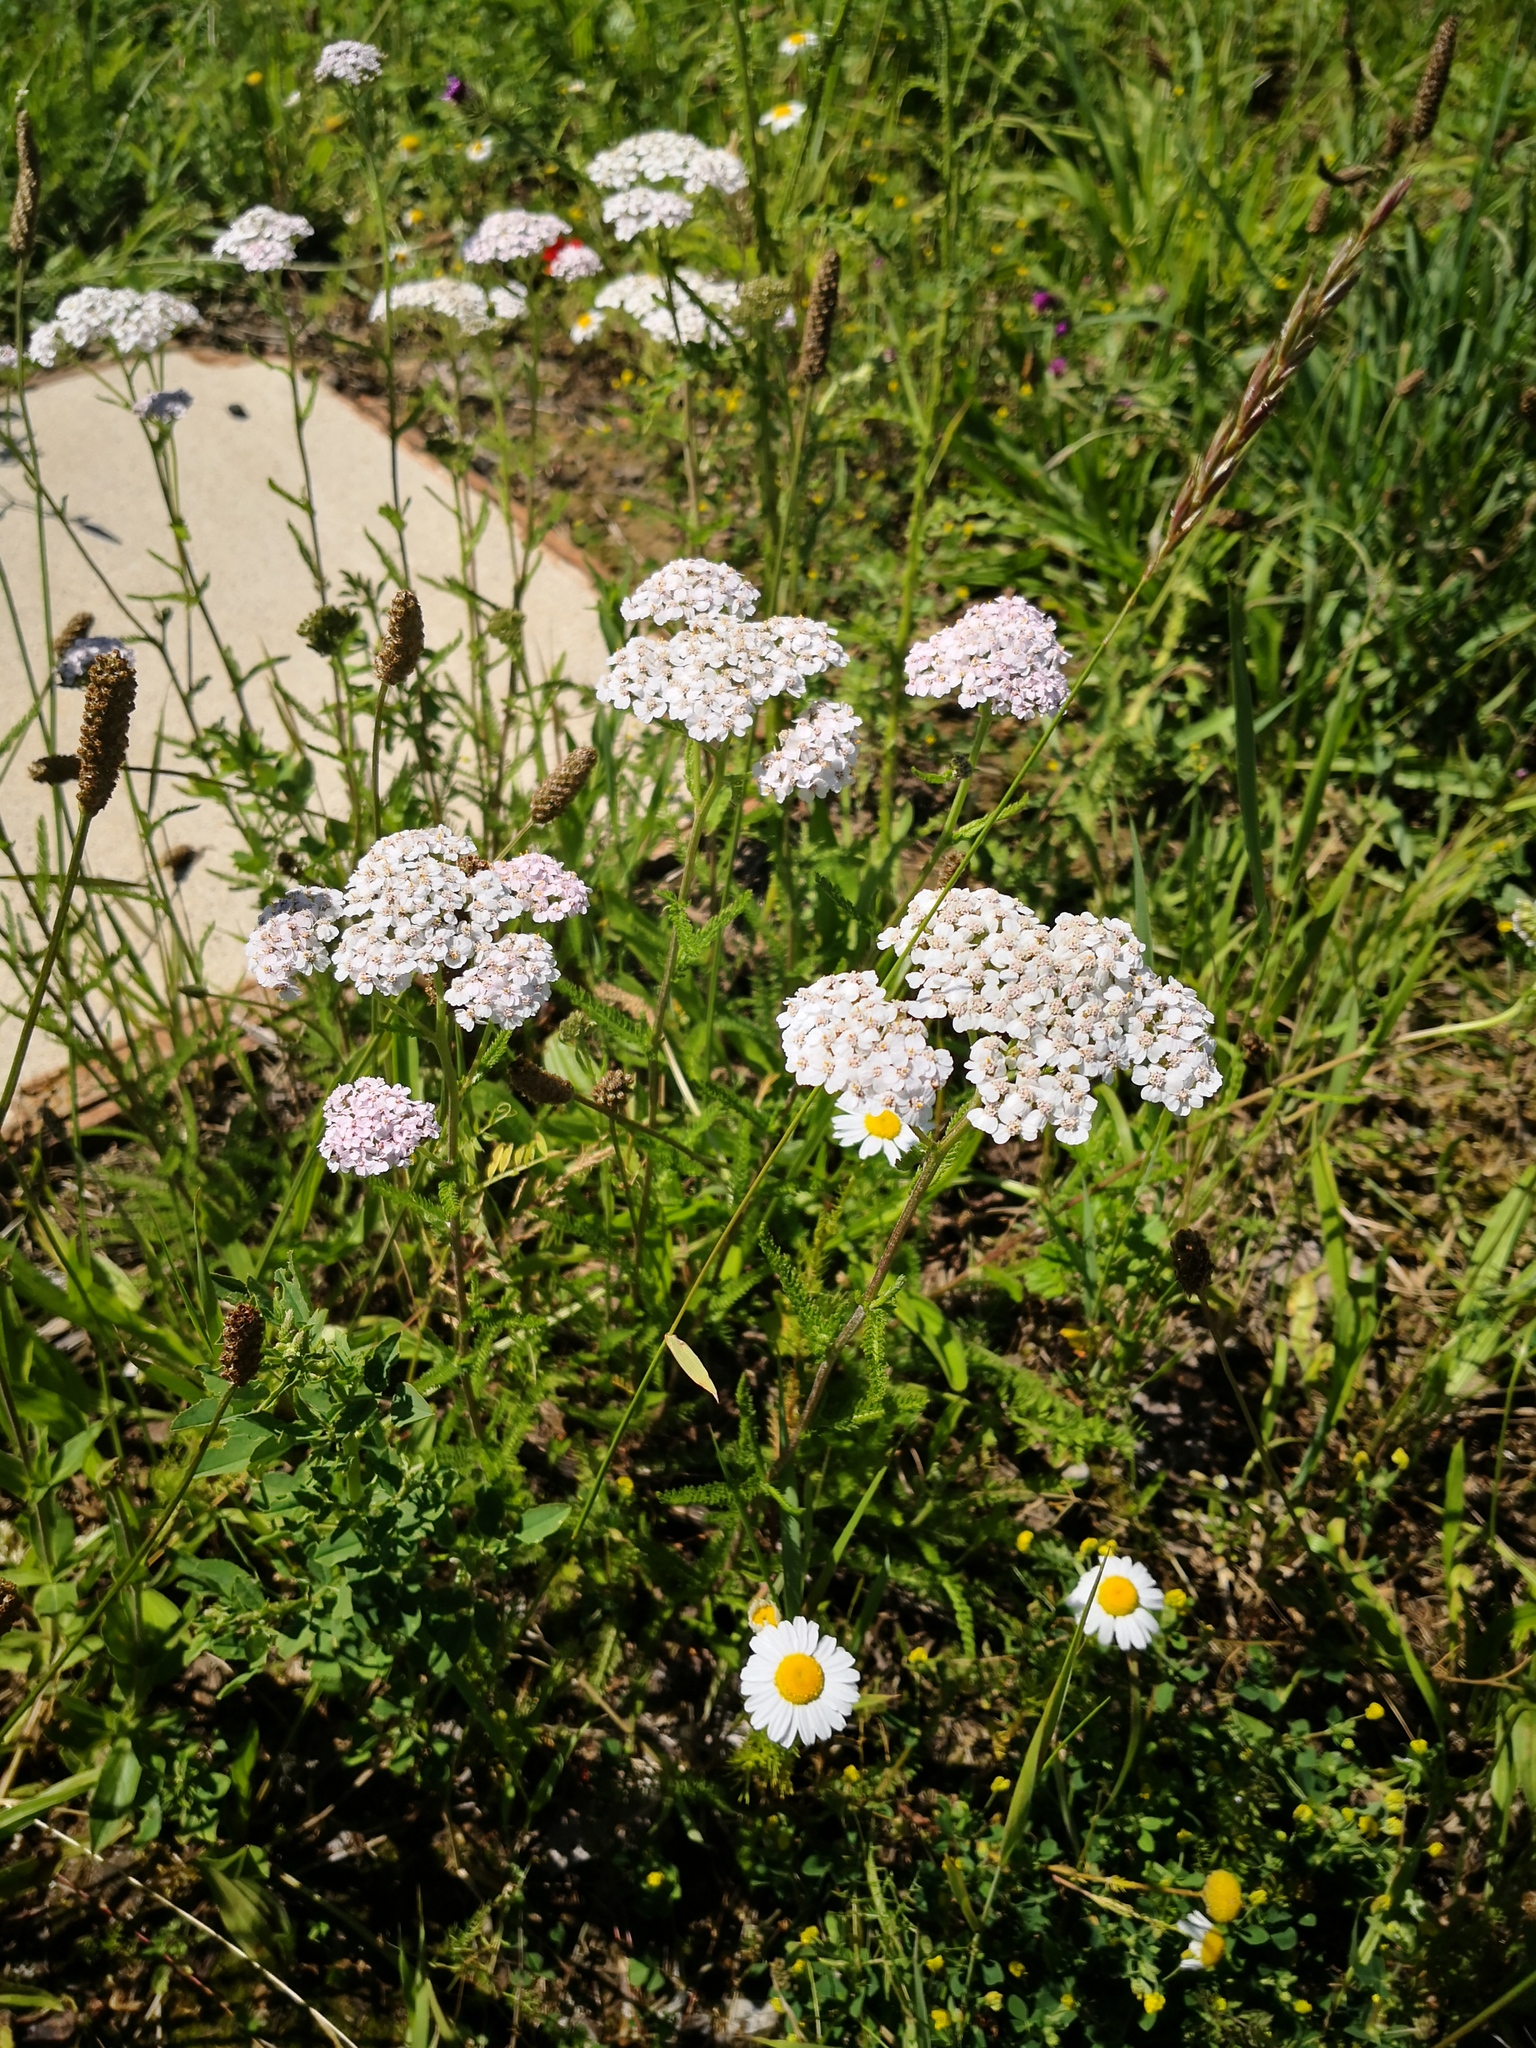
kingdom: Plantae
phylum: Tracheophyta
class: Magnoliopsida
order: Asterales
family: Asteraceae
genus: Achillea
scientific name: Achillea millefolium
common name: Yarrow
